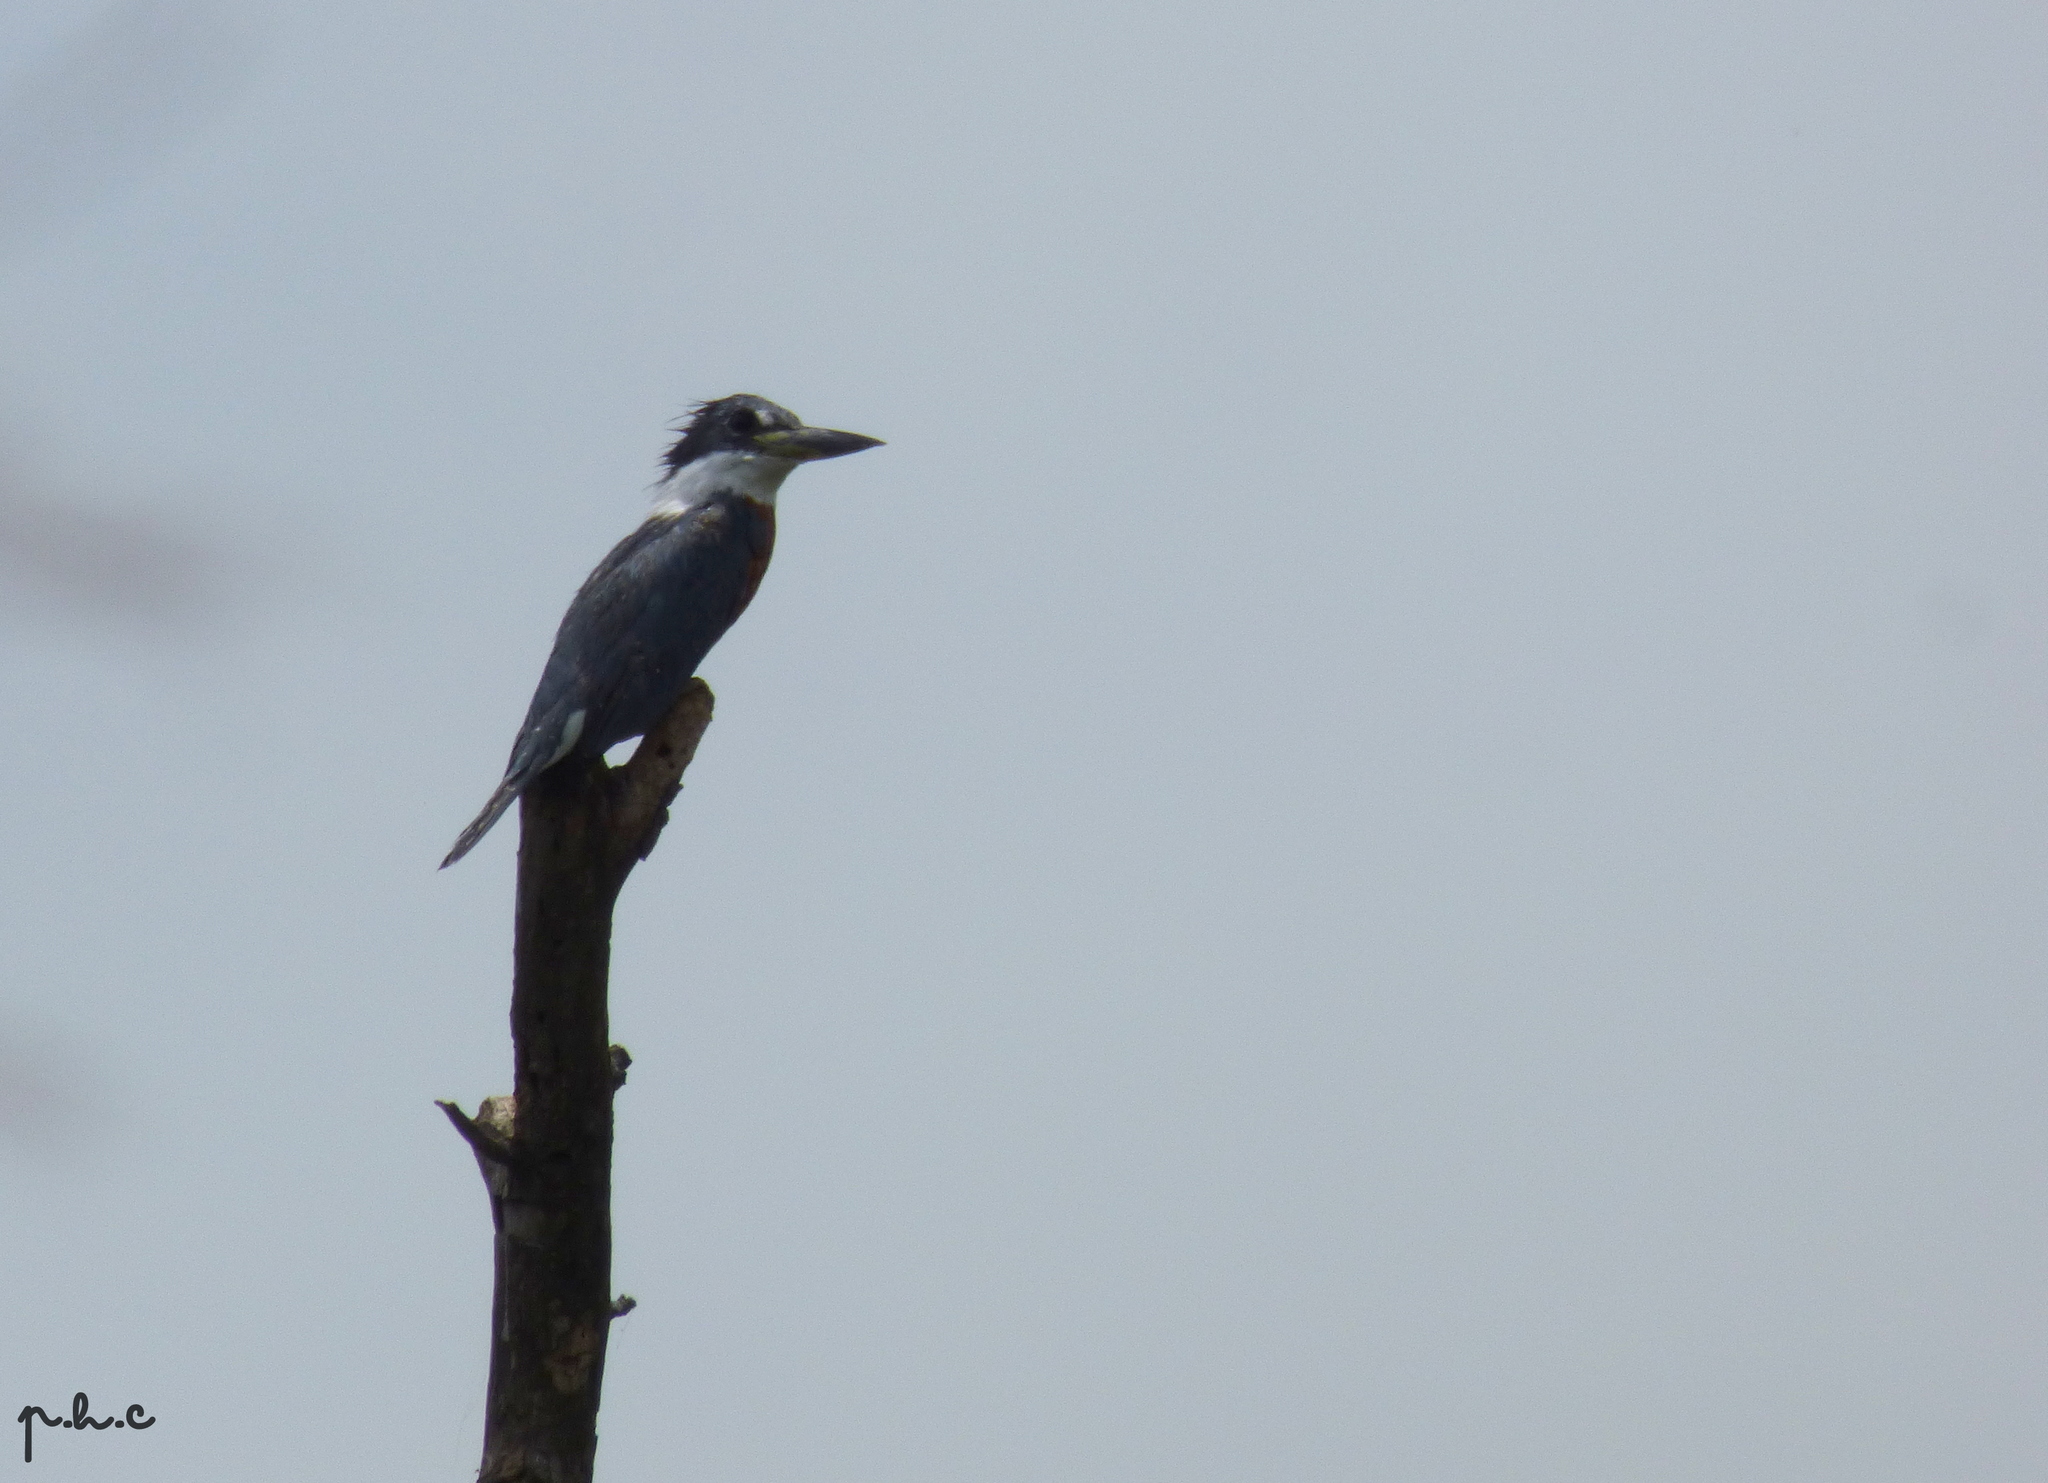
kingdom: Animalia
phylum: Chordata
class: Aves
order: Coraciiformes
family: Alcedinidae
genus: Megaceryle
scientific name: Megaceryle torquata
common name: Ringed kingfisher
